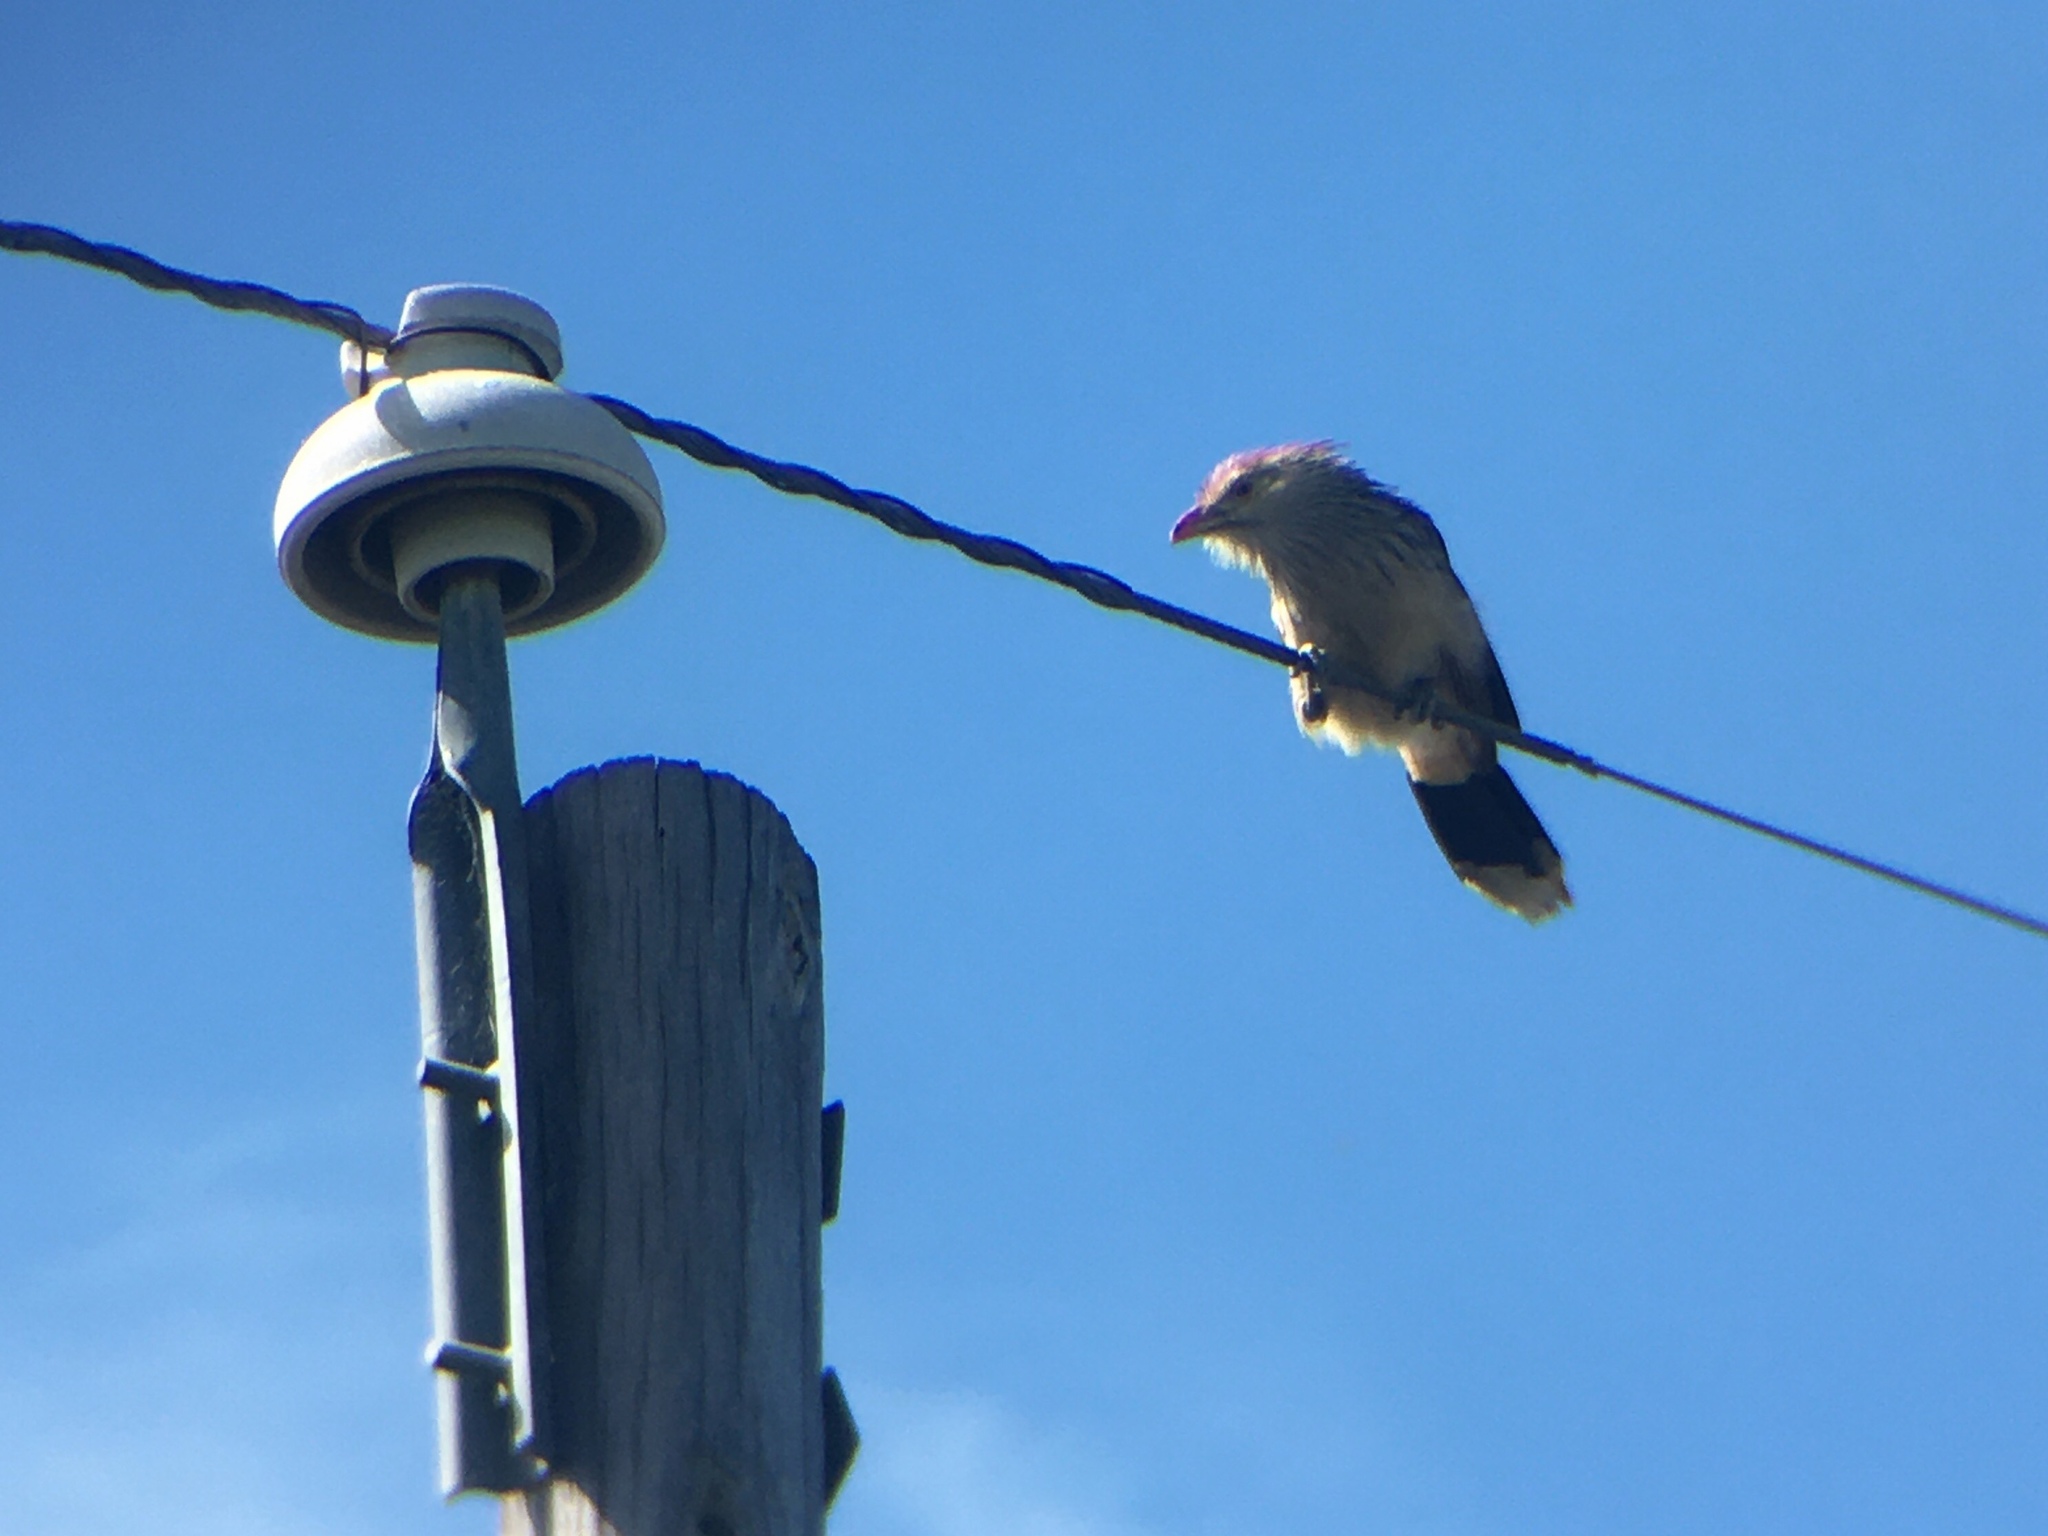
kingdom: Animalia
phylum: Chordata
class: Aves
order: Cuculiformes
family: Cuculidae
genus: Guira
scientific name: Guira guira
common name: Guira cuckoo
